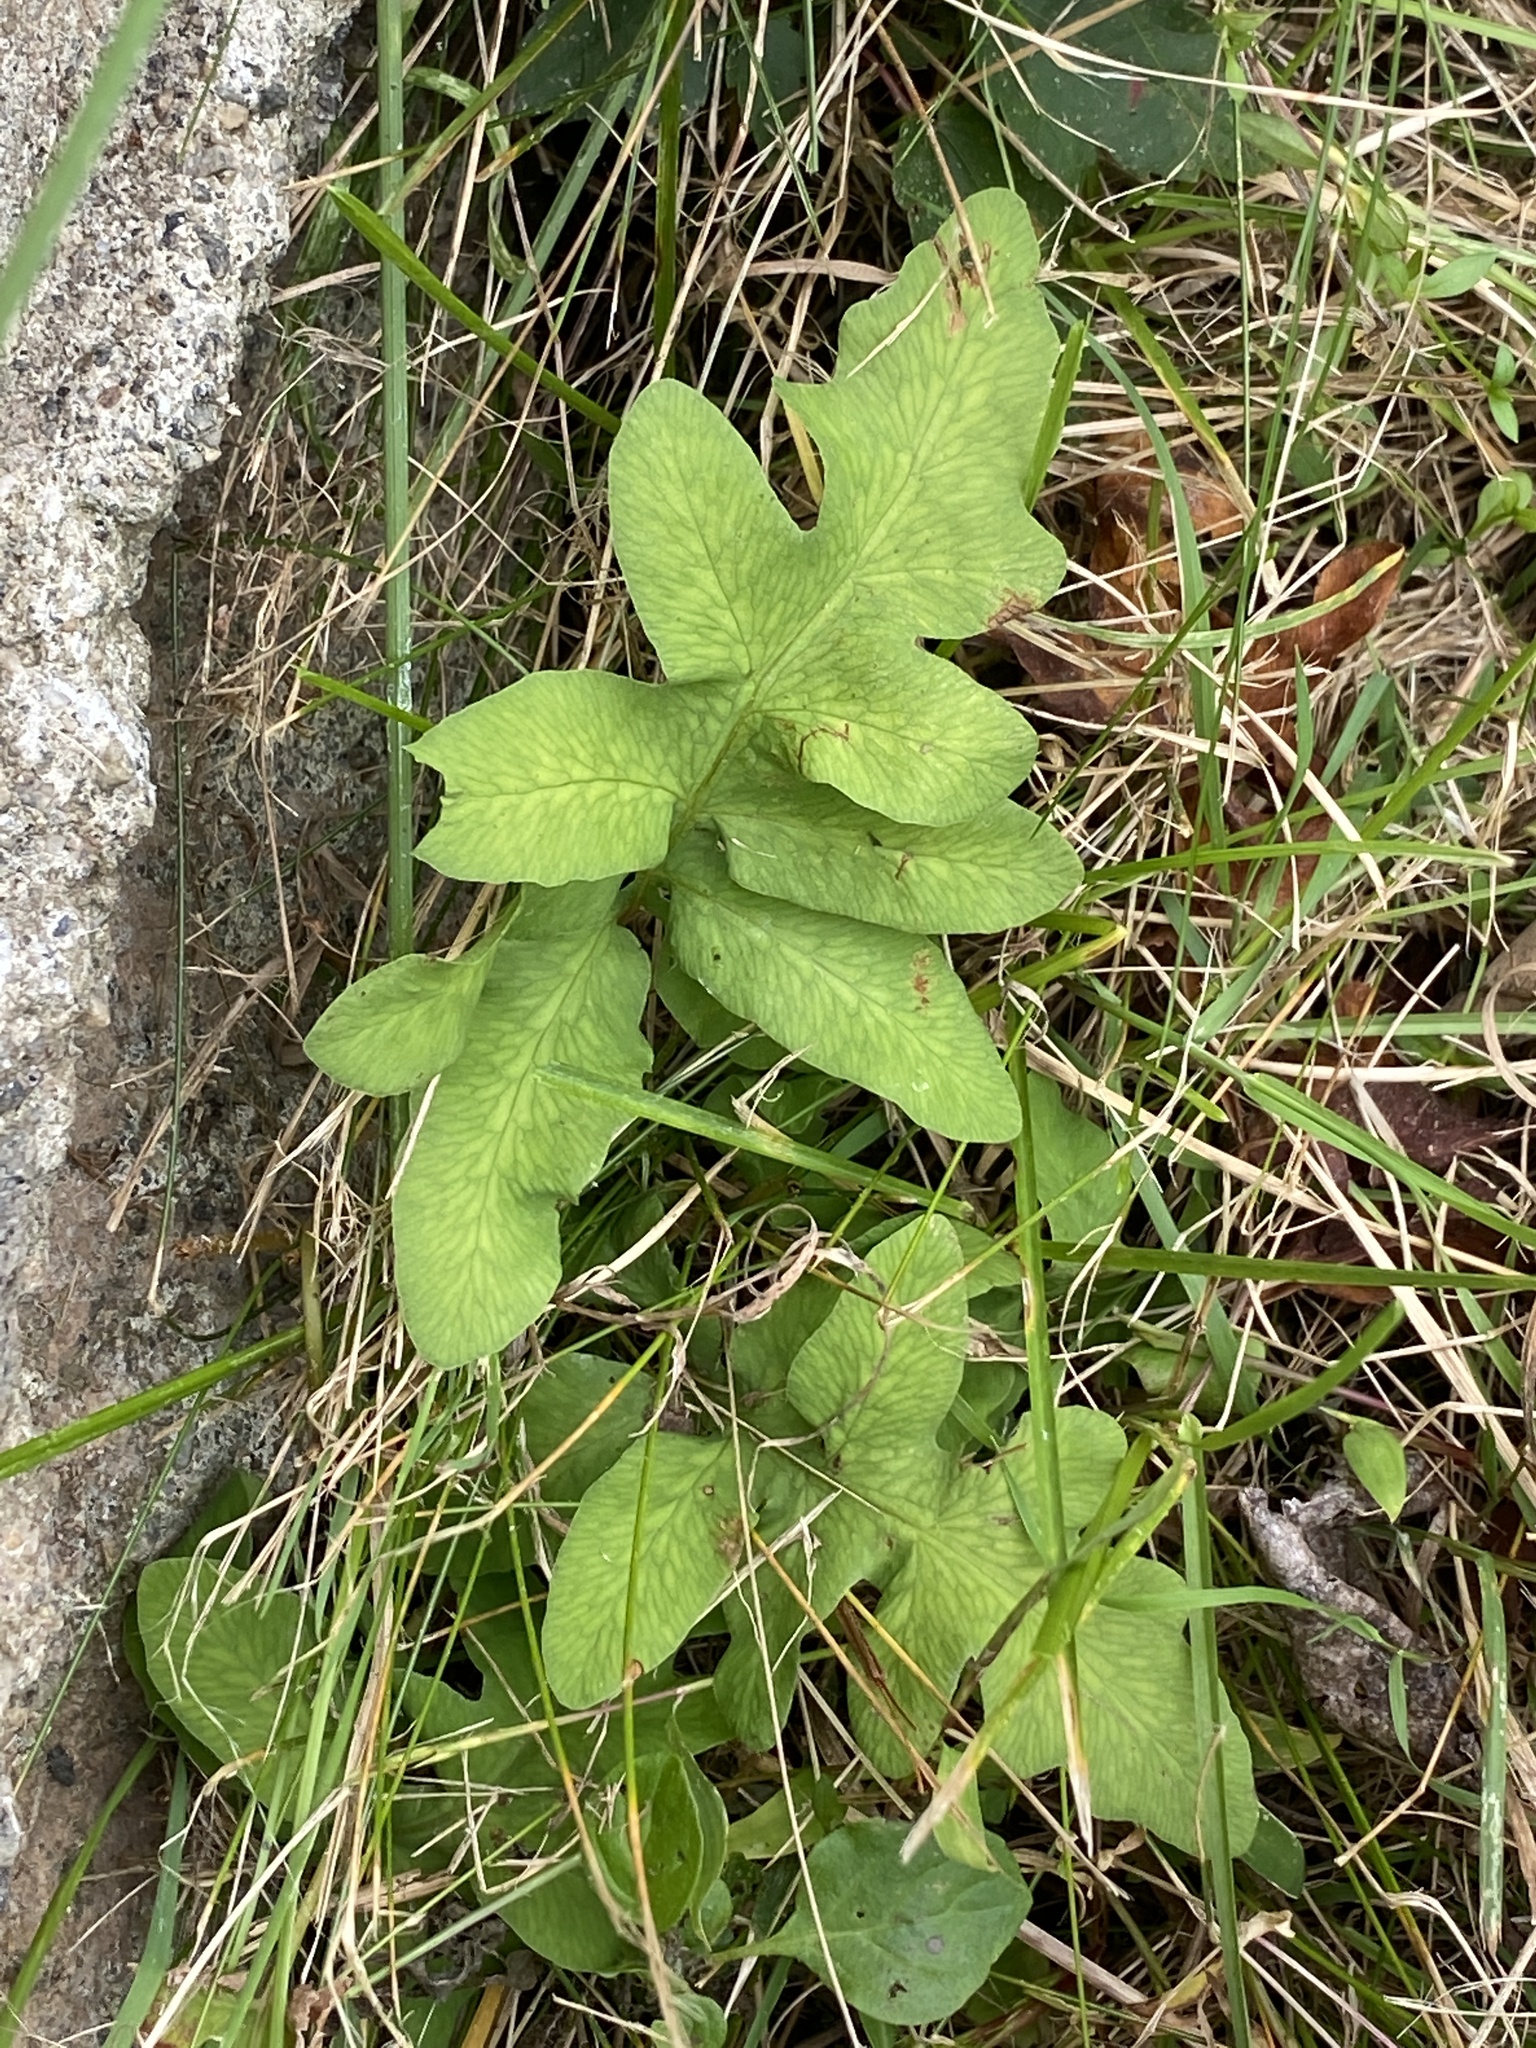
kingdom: Plantae
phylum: Tracheophyta
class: Polypodiopsida
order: Polypodiales
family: Onocleaceae
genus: Onoclea
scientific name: Onoclea sensibilis
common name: Sensitive fern
